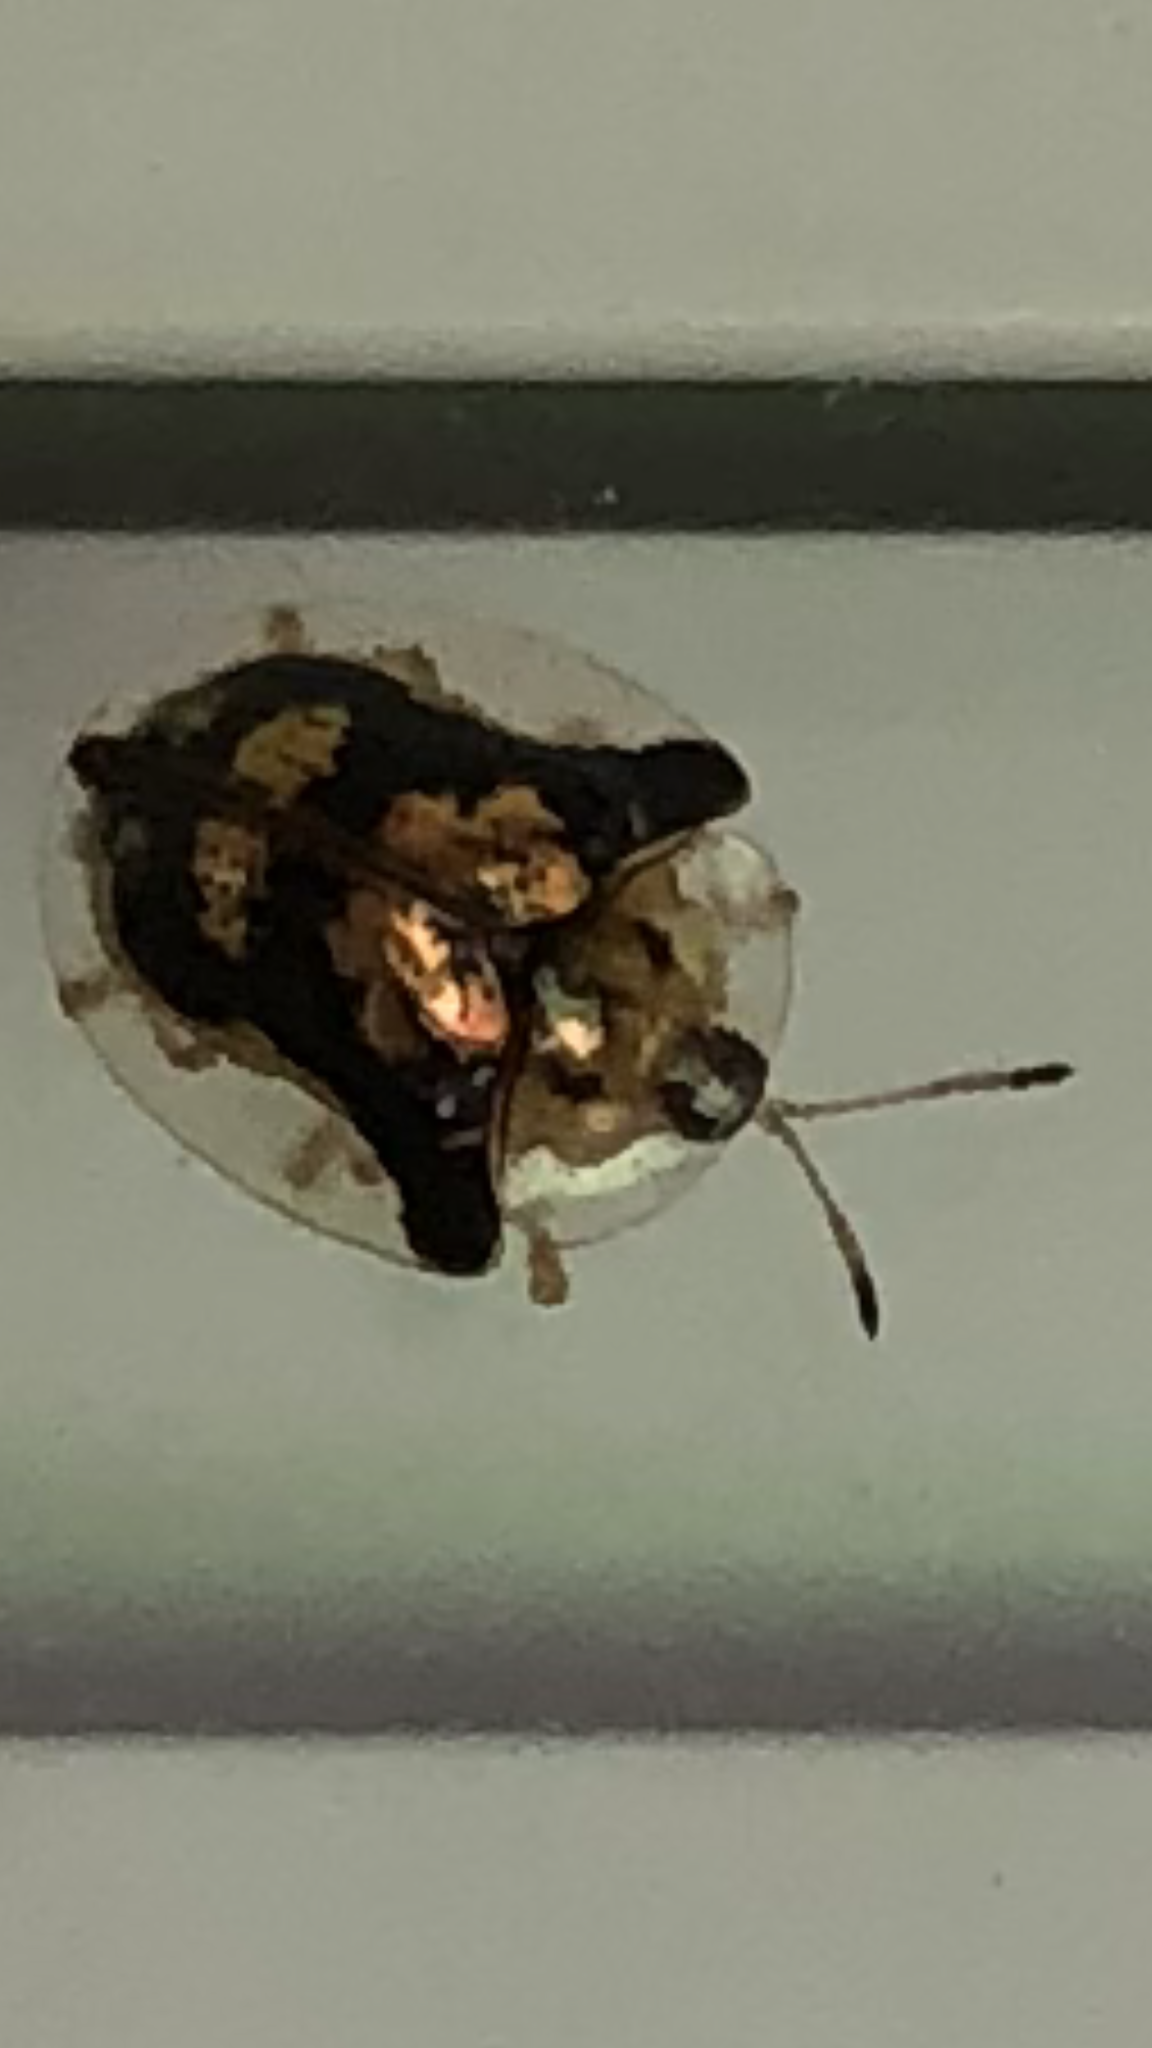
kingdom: Animalia
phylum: Arthropoda
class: Insecta
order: Coleoptera
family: Chrysomelidae
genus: Deloyala
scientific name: Deloyala guttata
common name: Mottled tortoise beetle
